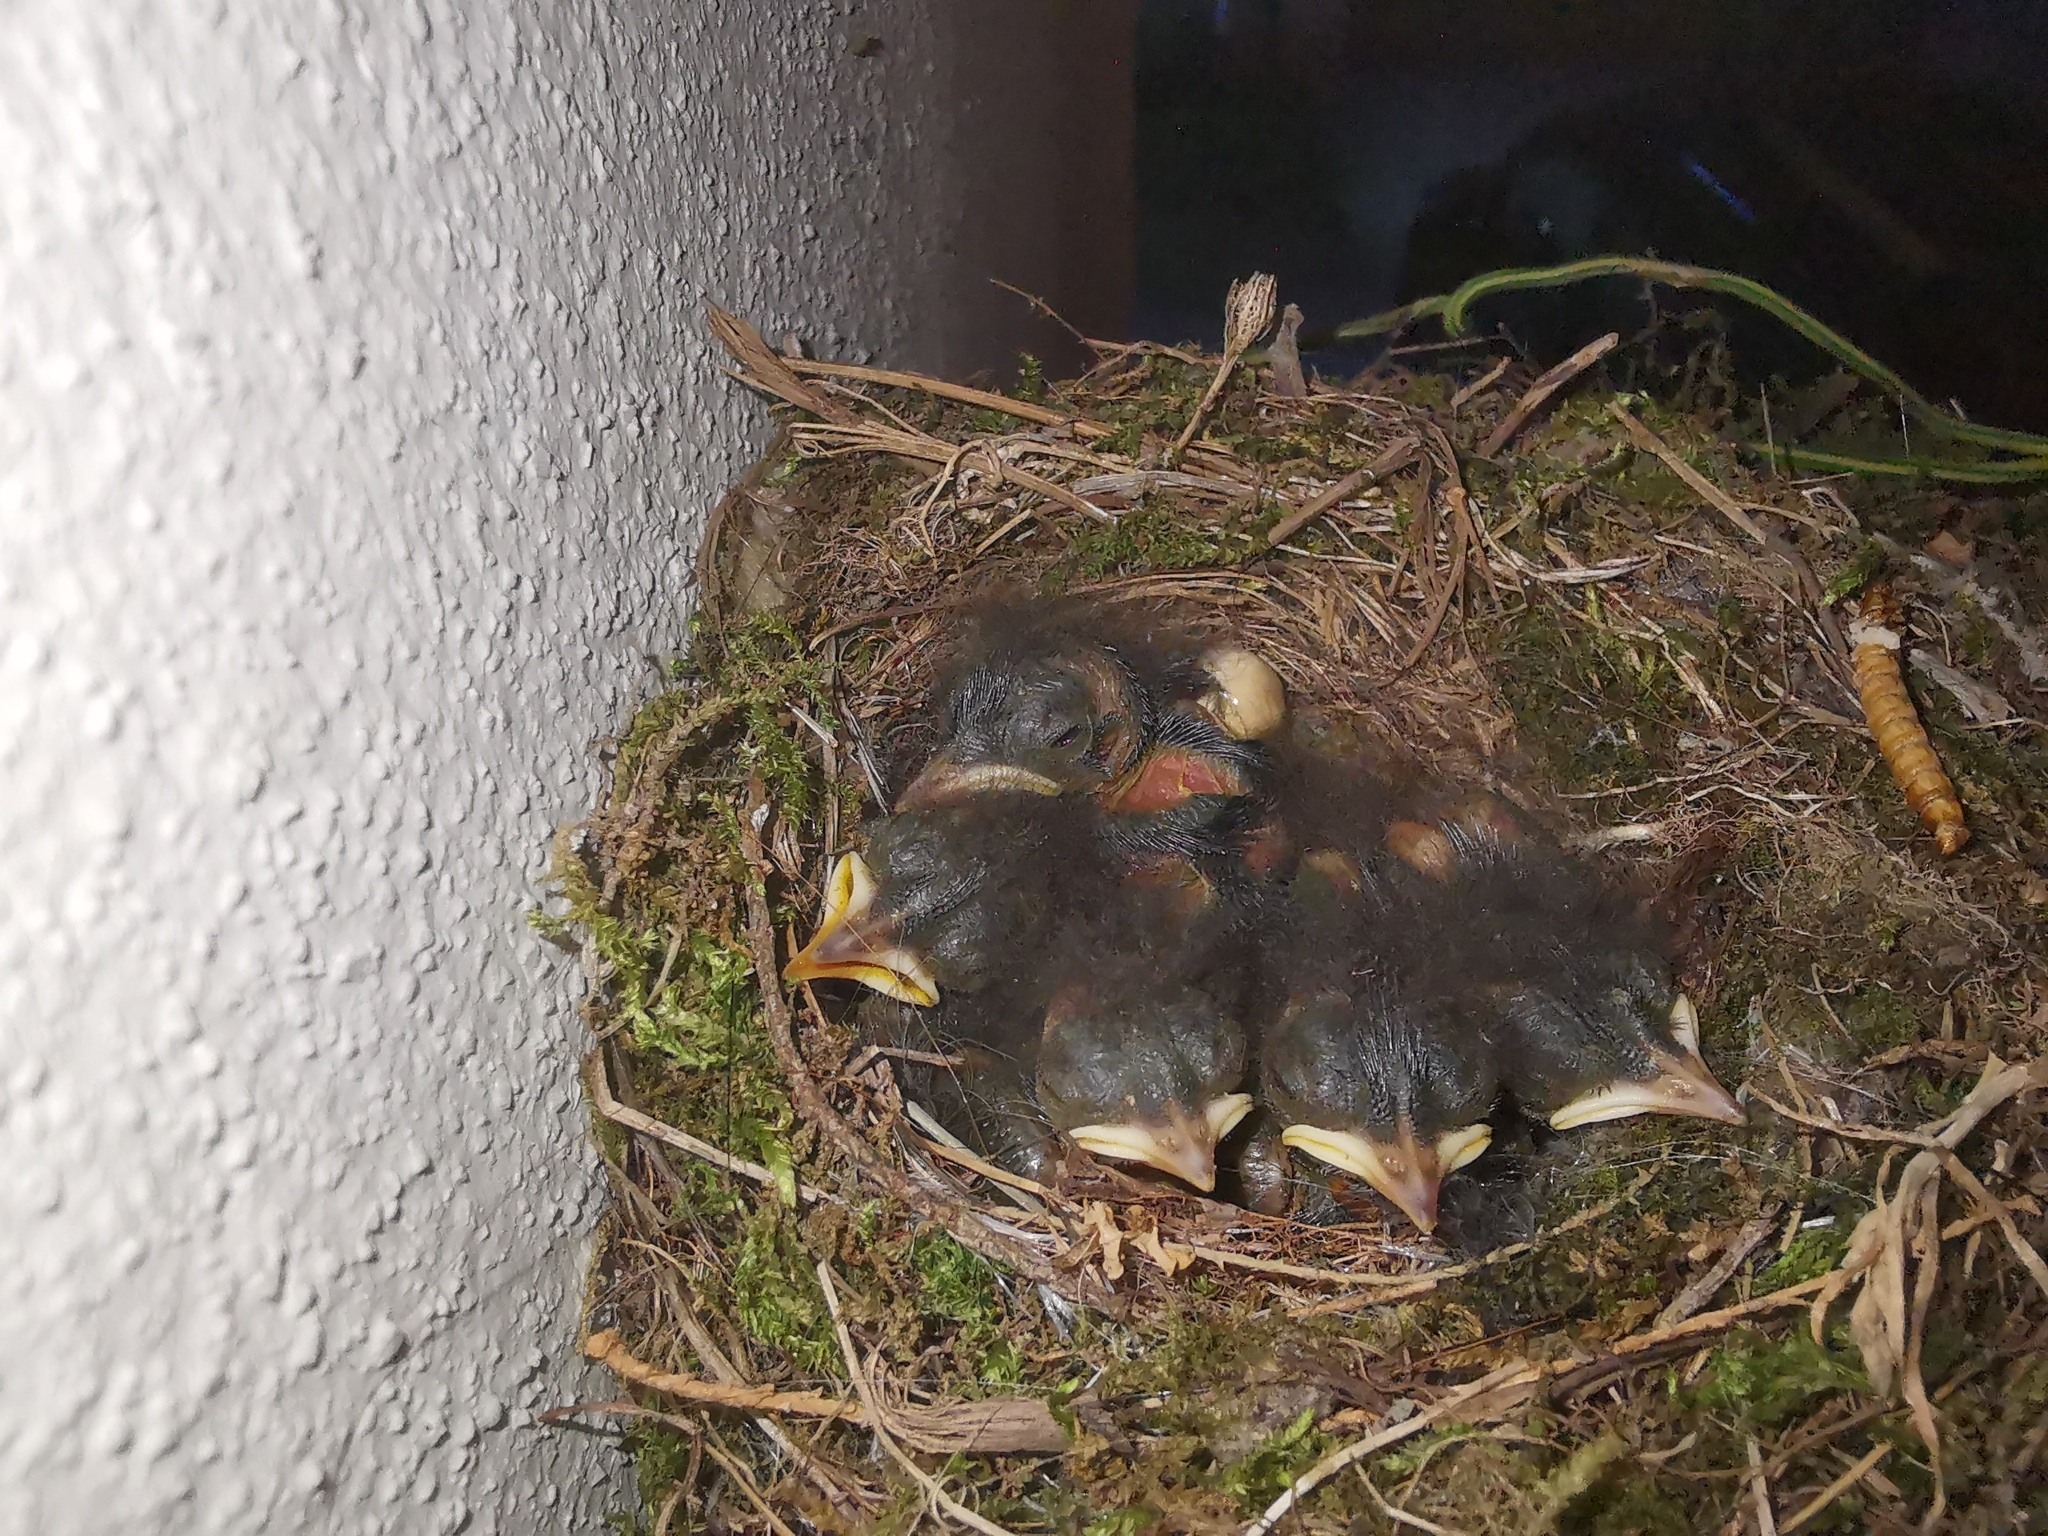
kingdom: Animalia
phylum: Chordata
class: Aves
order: Passeriformes
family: Muscicapidae
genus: Phoenicurus
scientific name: Phoenicurus ochruros
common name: Black redstart
